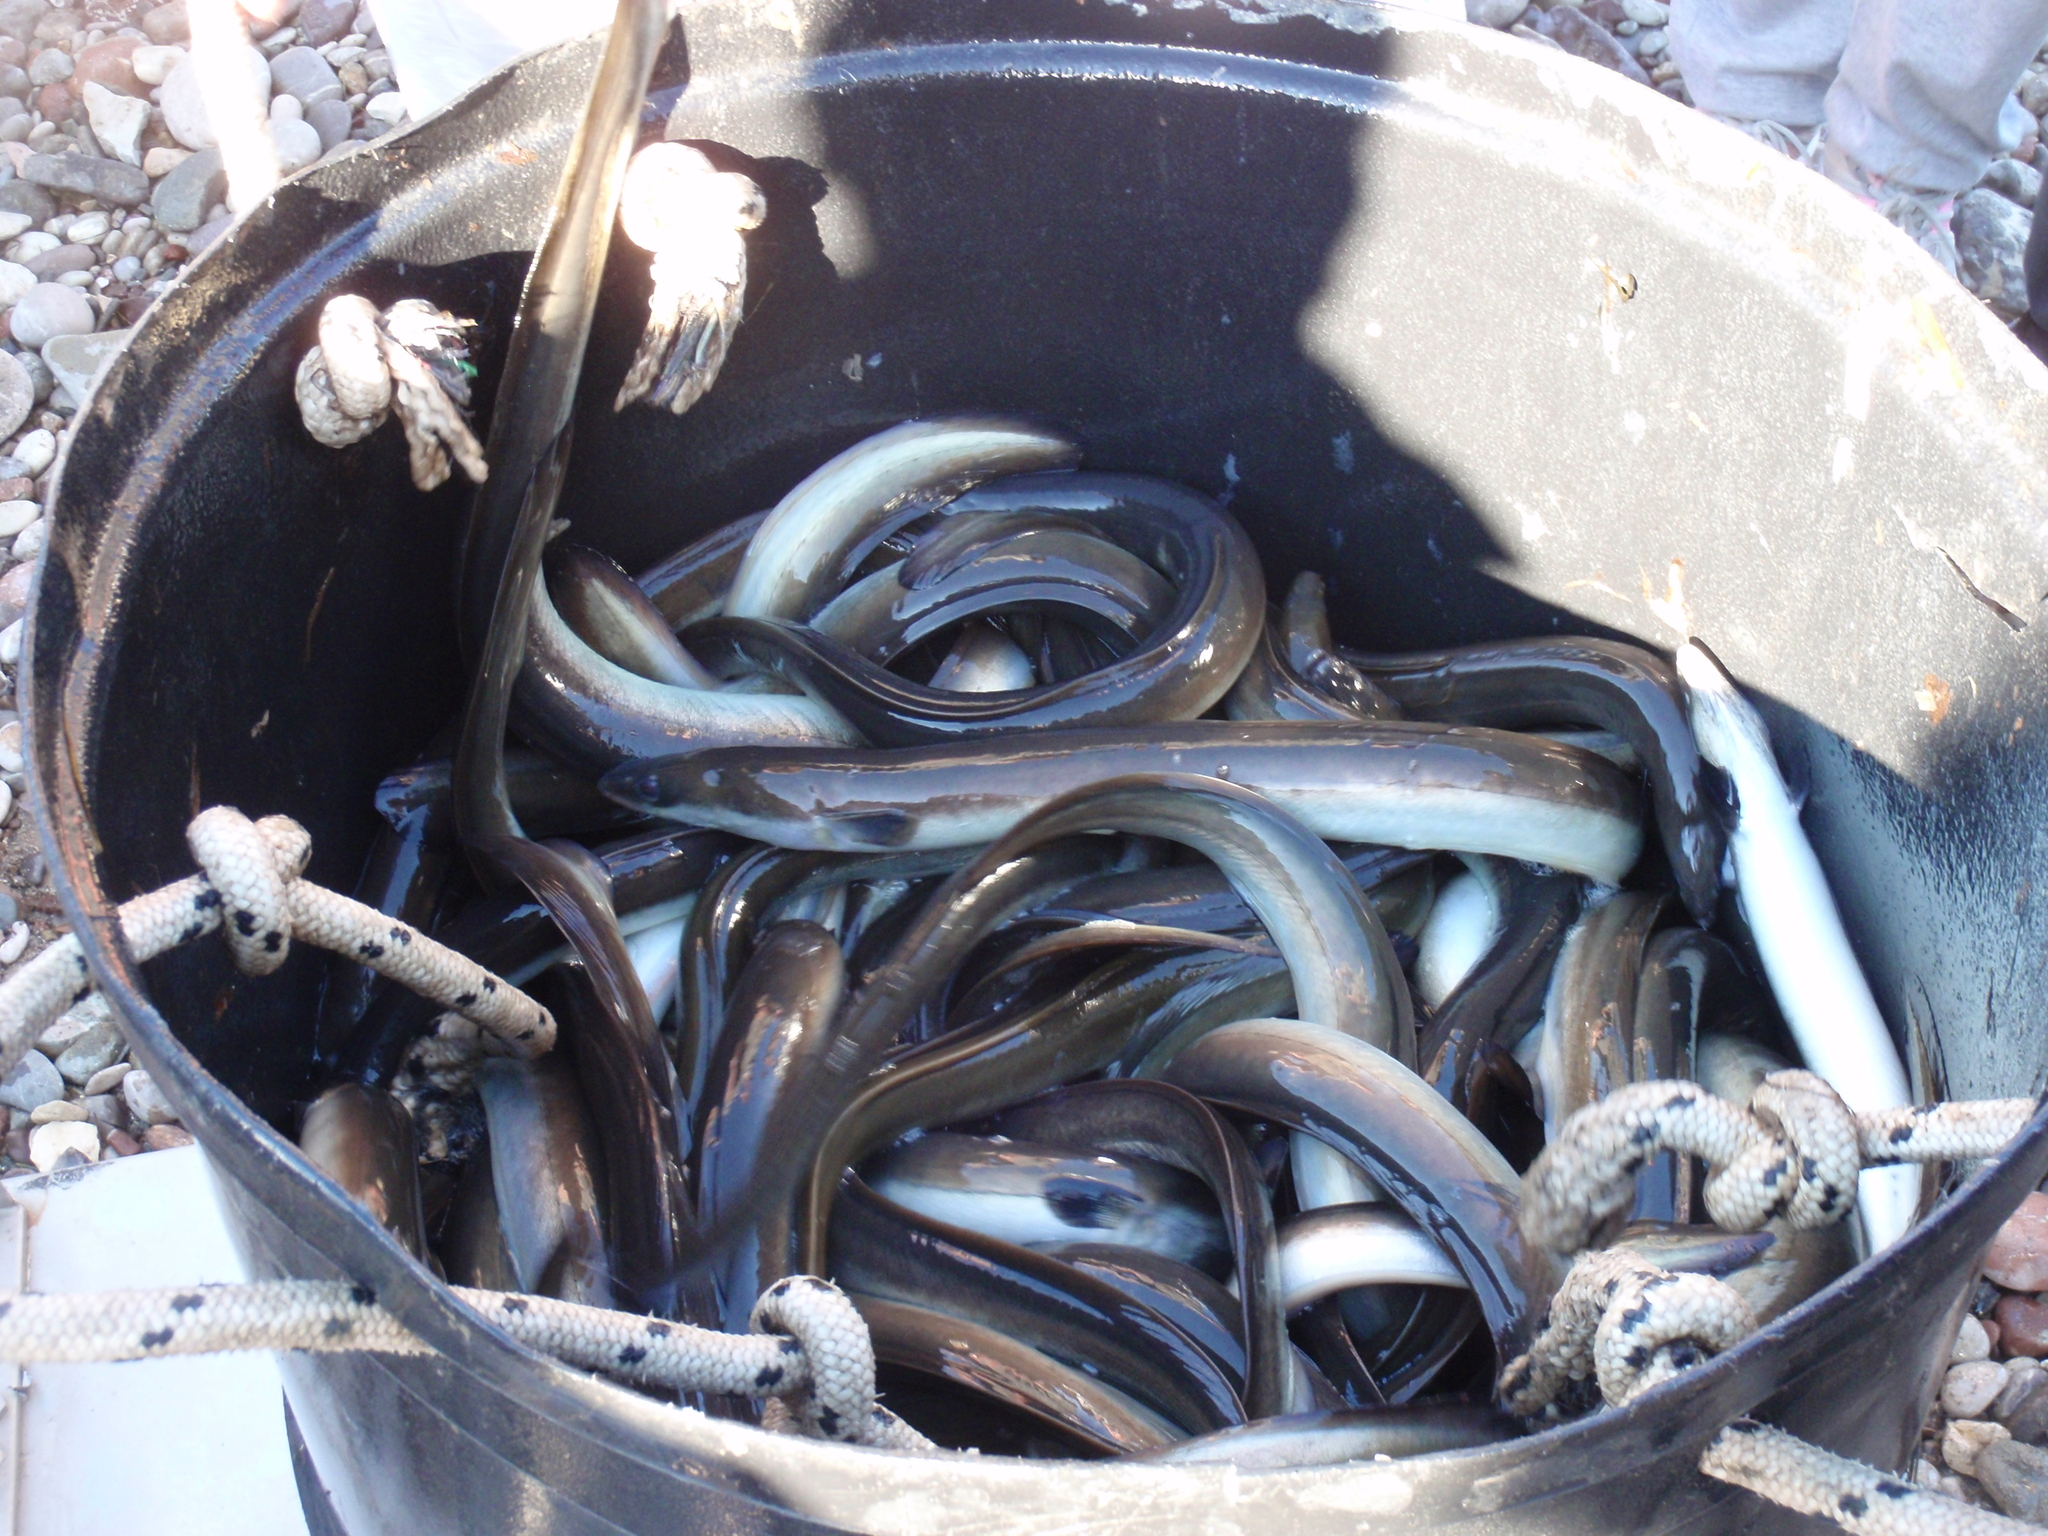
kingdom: Animalia
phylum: Chordata
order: Anguilliformes
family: Anguillidae
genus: Anguilla
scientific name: Anguilla anguilla
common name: European eel
